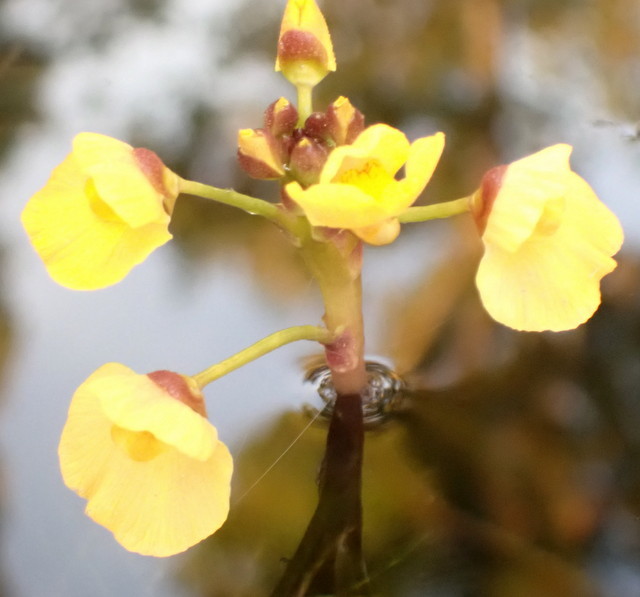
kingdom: Plantae
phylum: Tracheophyta
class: Magnoliopsida
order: Lamiales
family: Lentibulariaceae
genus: Utricularia
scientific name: Utricularia foliosa
